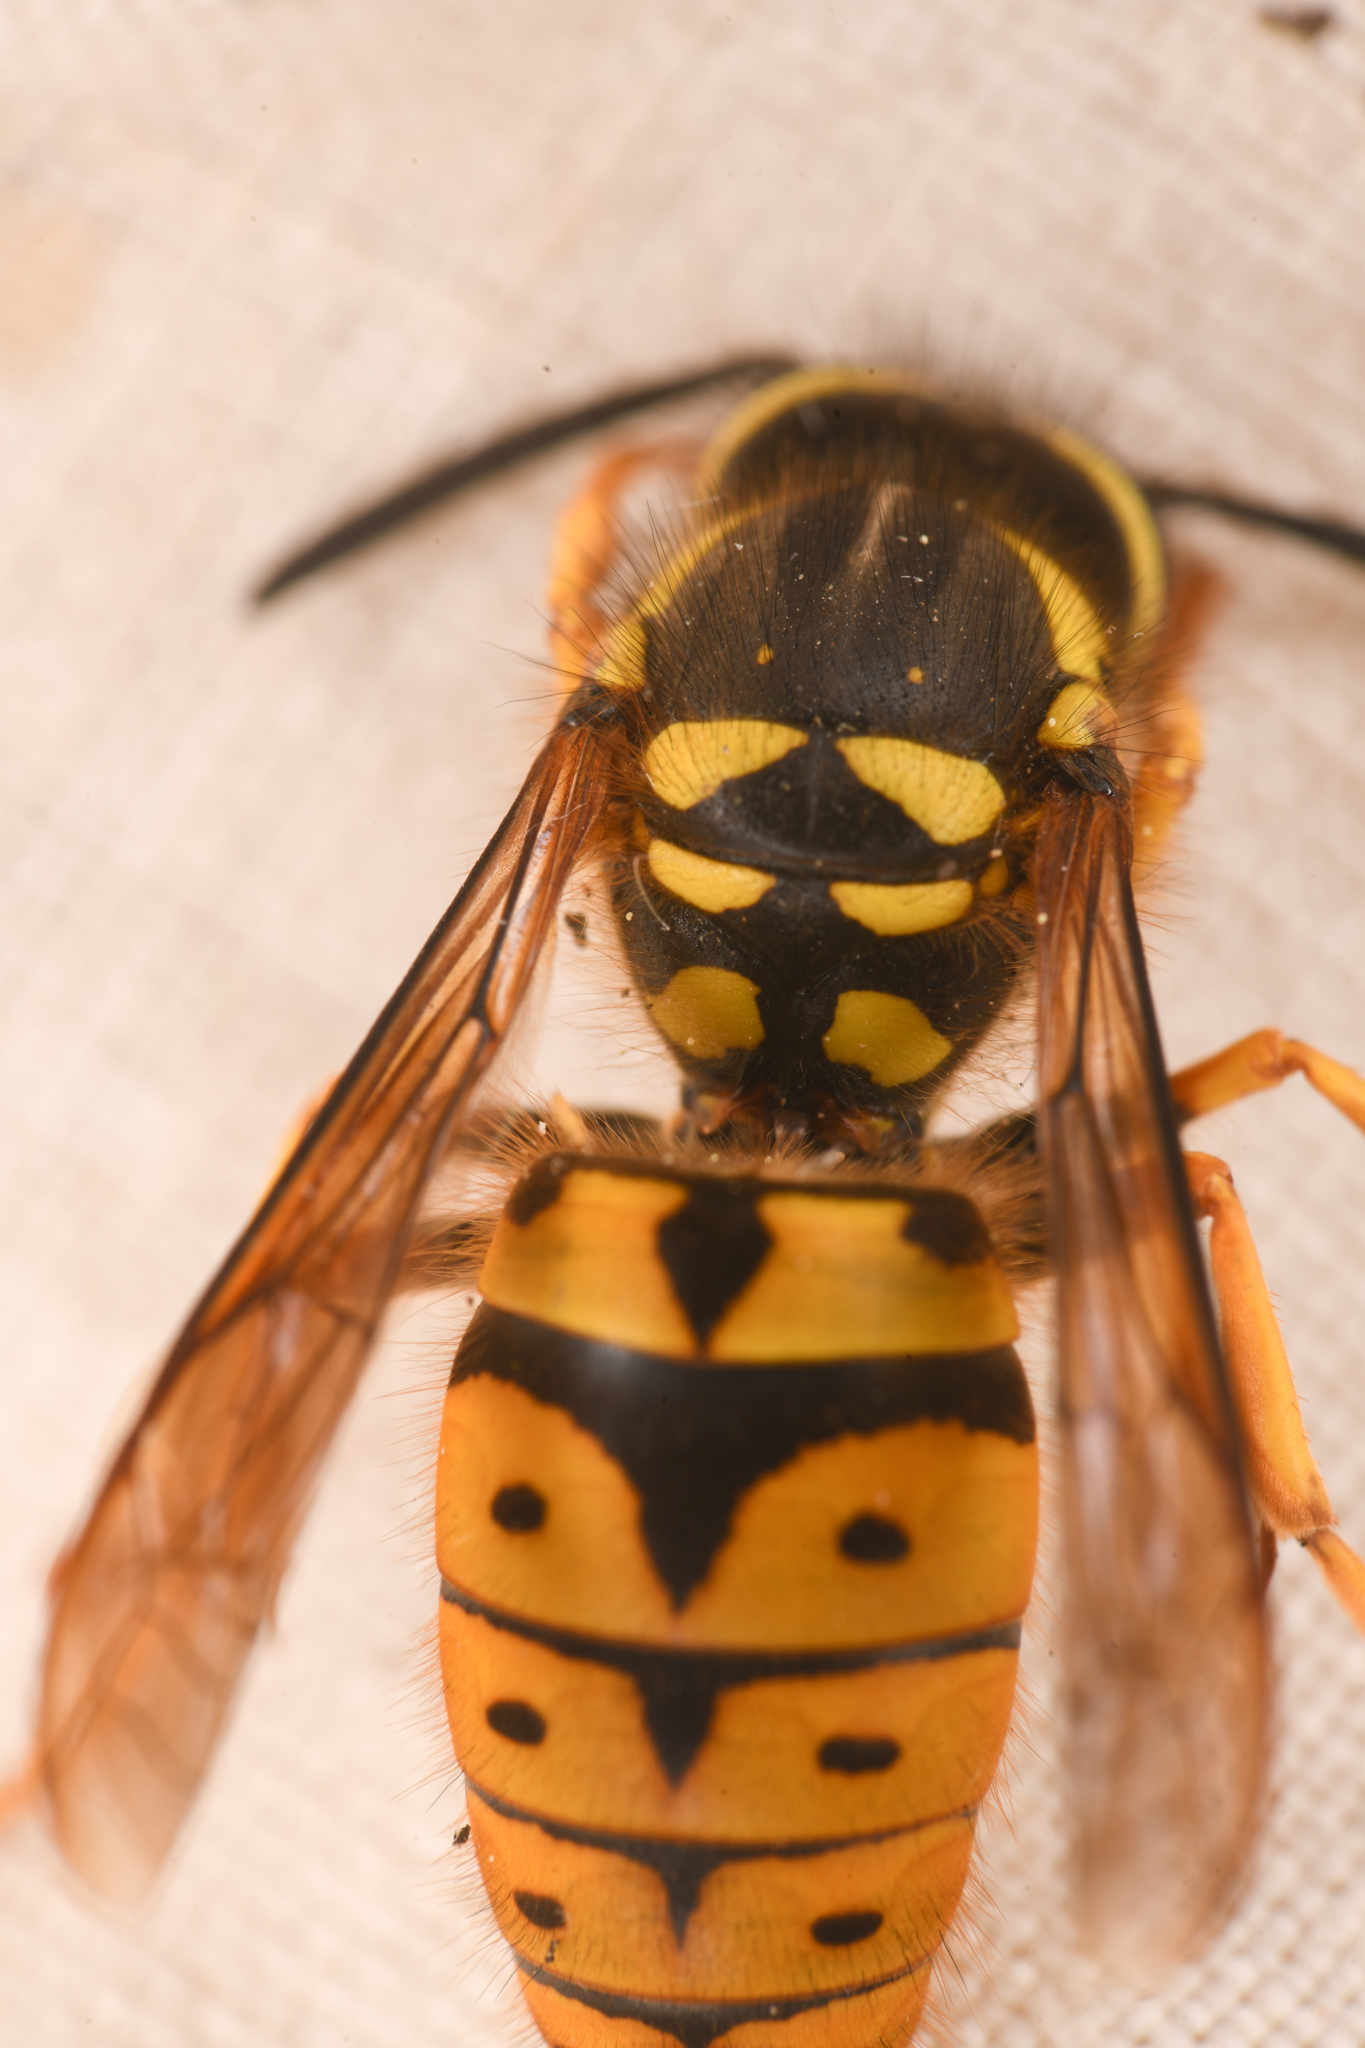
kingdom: Animalia
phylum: Arthropoda
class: Insecta
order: Hymenoptera
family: Vespidae
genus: Vespula
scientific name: Vespula pensylvanica
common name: Western yellowjacket
